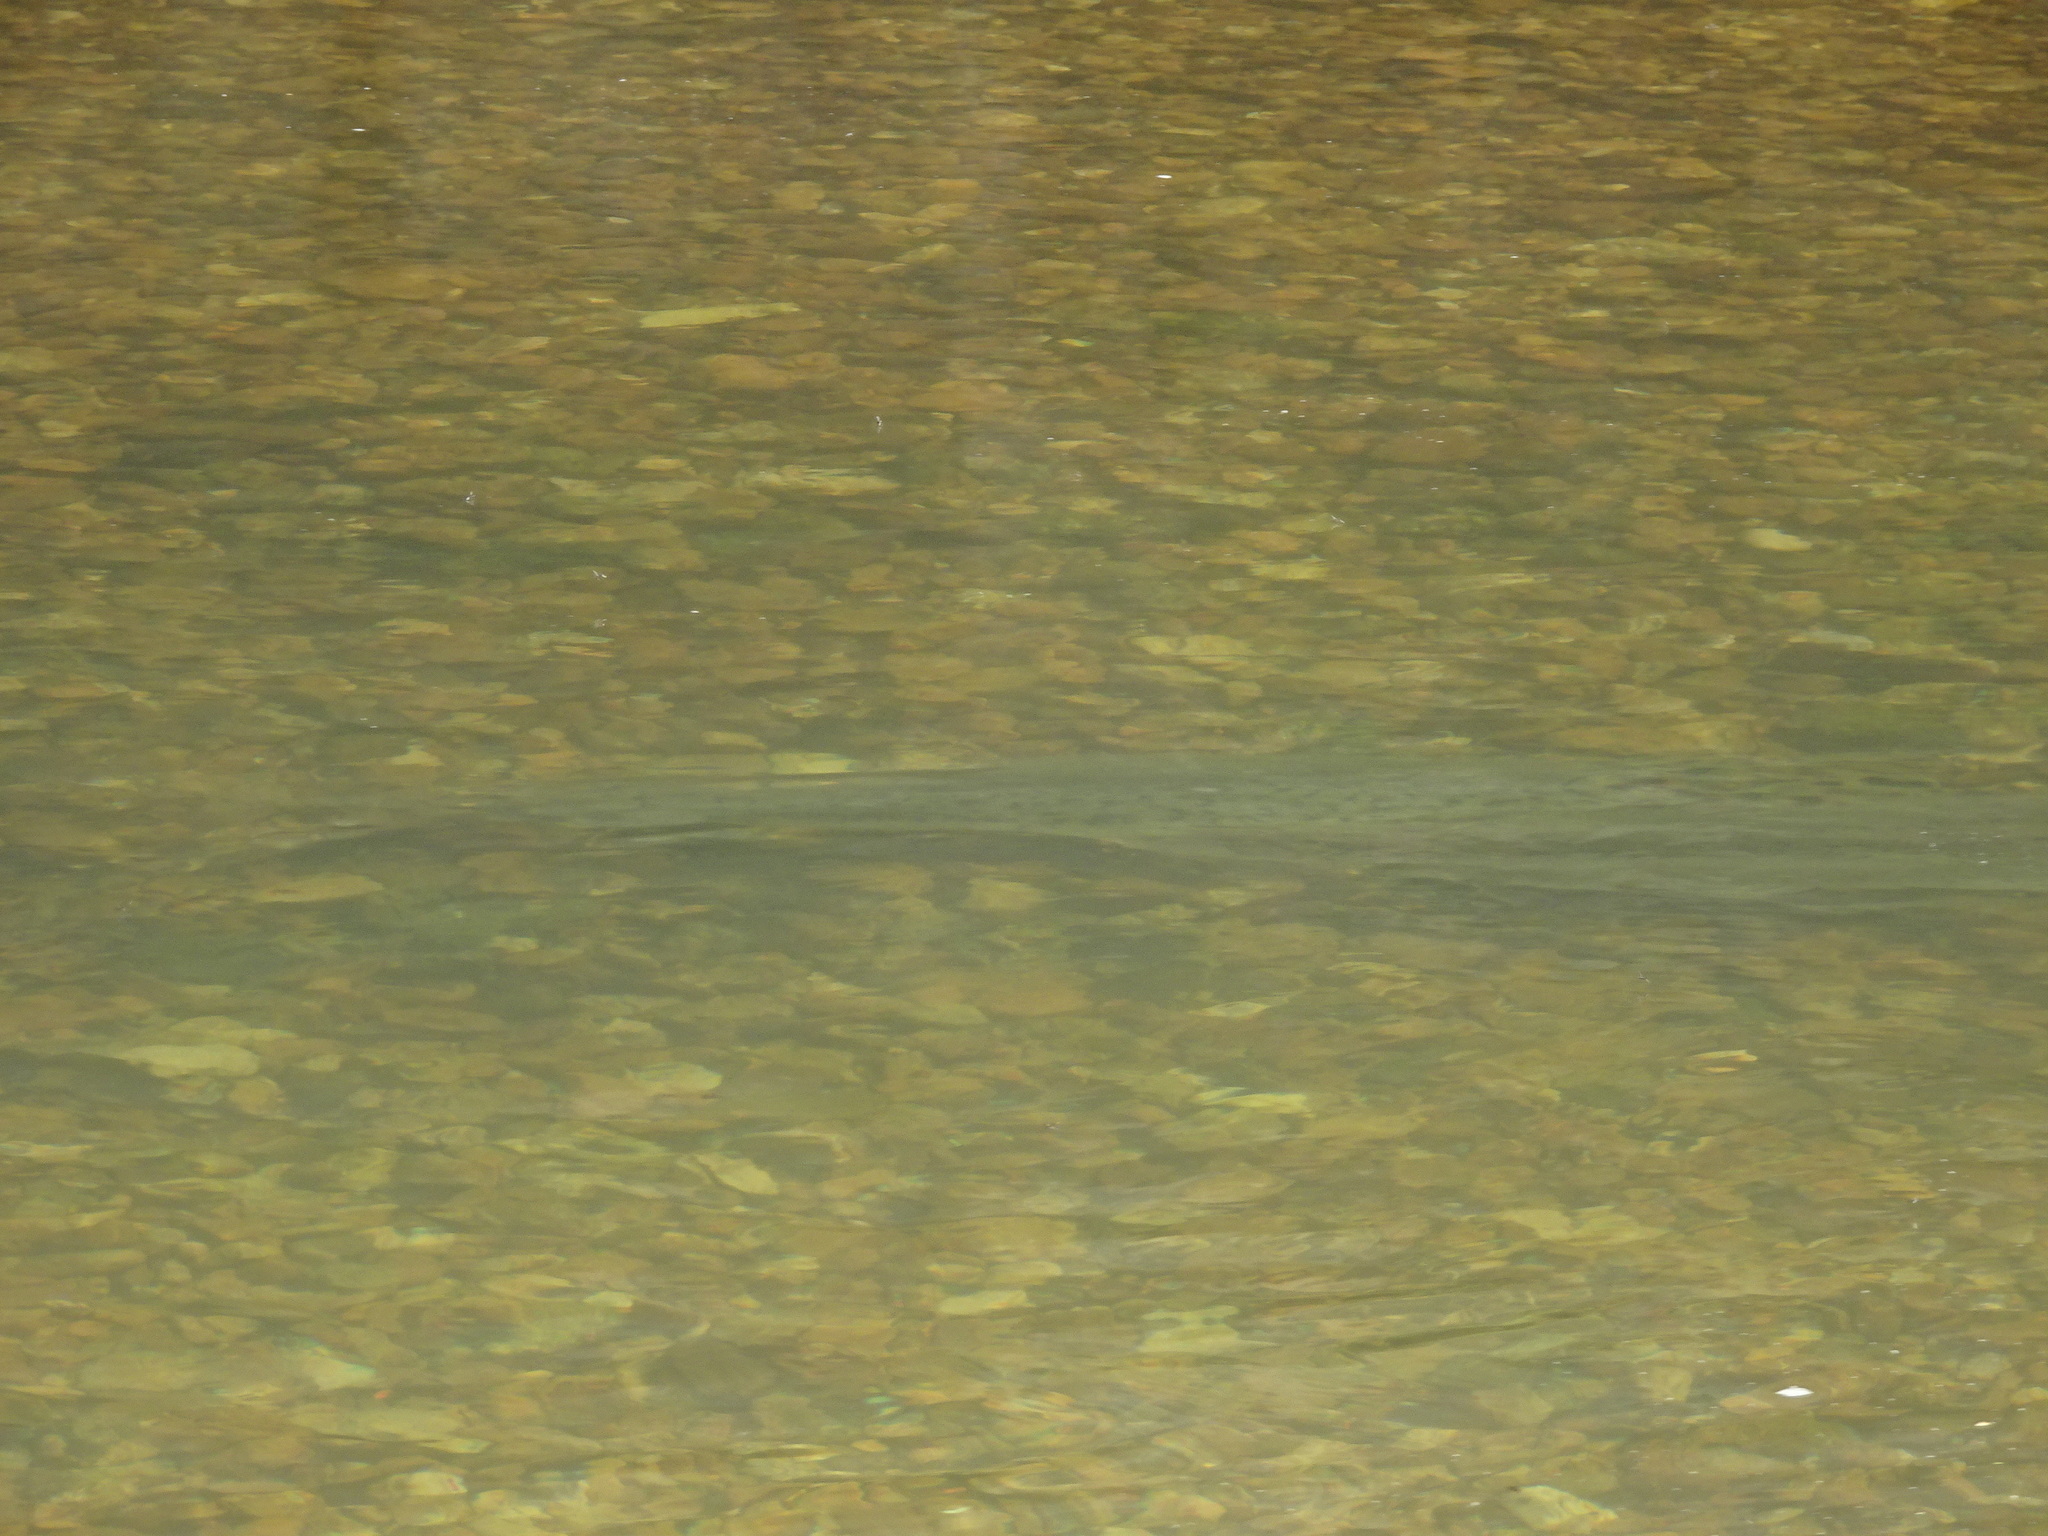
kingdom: Animalia
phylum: Chordata
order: Lepisosteiformes
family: Lepisosteidae
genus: Lepisosteus
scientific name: Lepisosteus osseus
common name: Longnose gar
